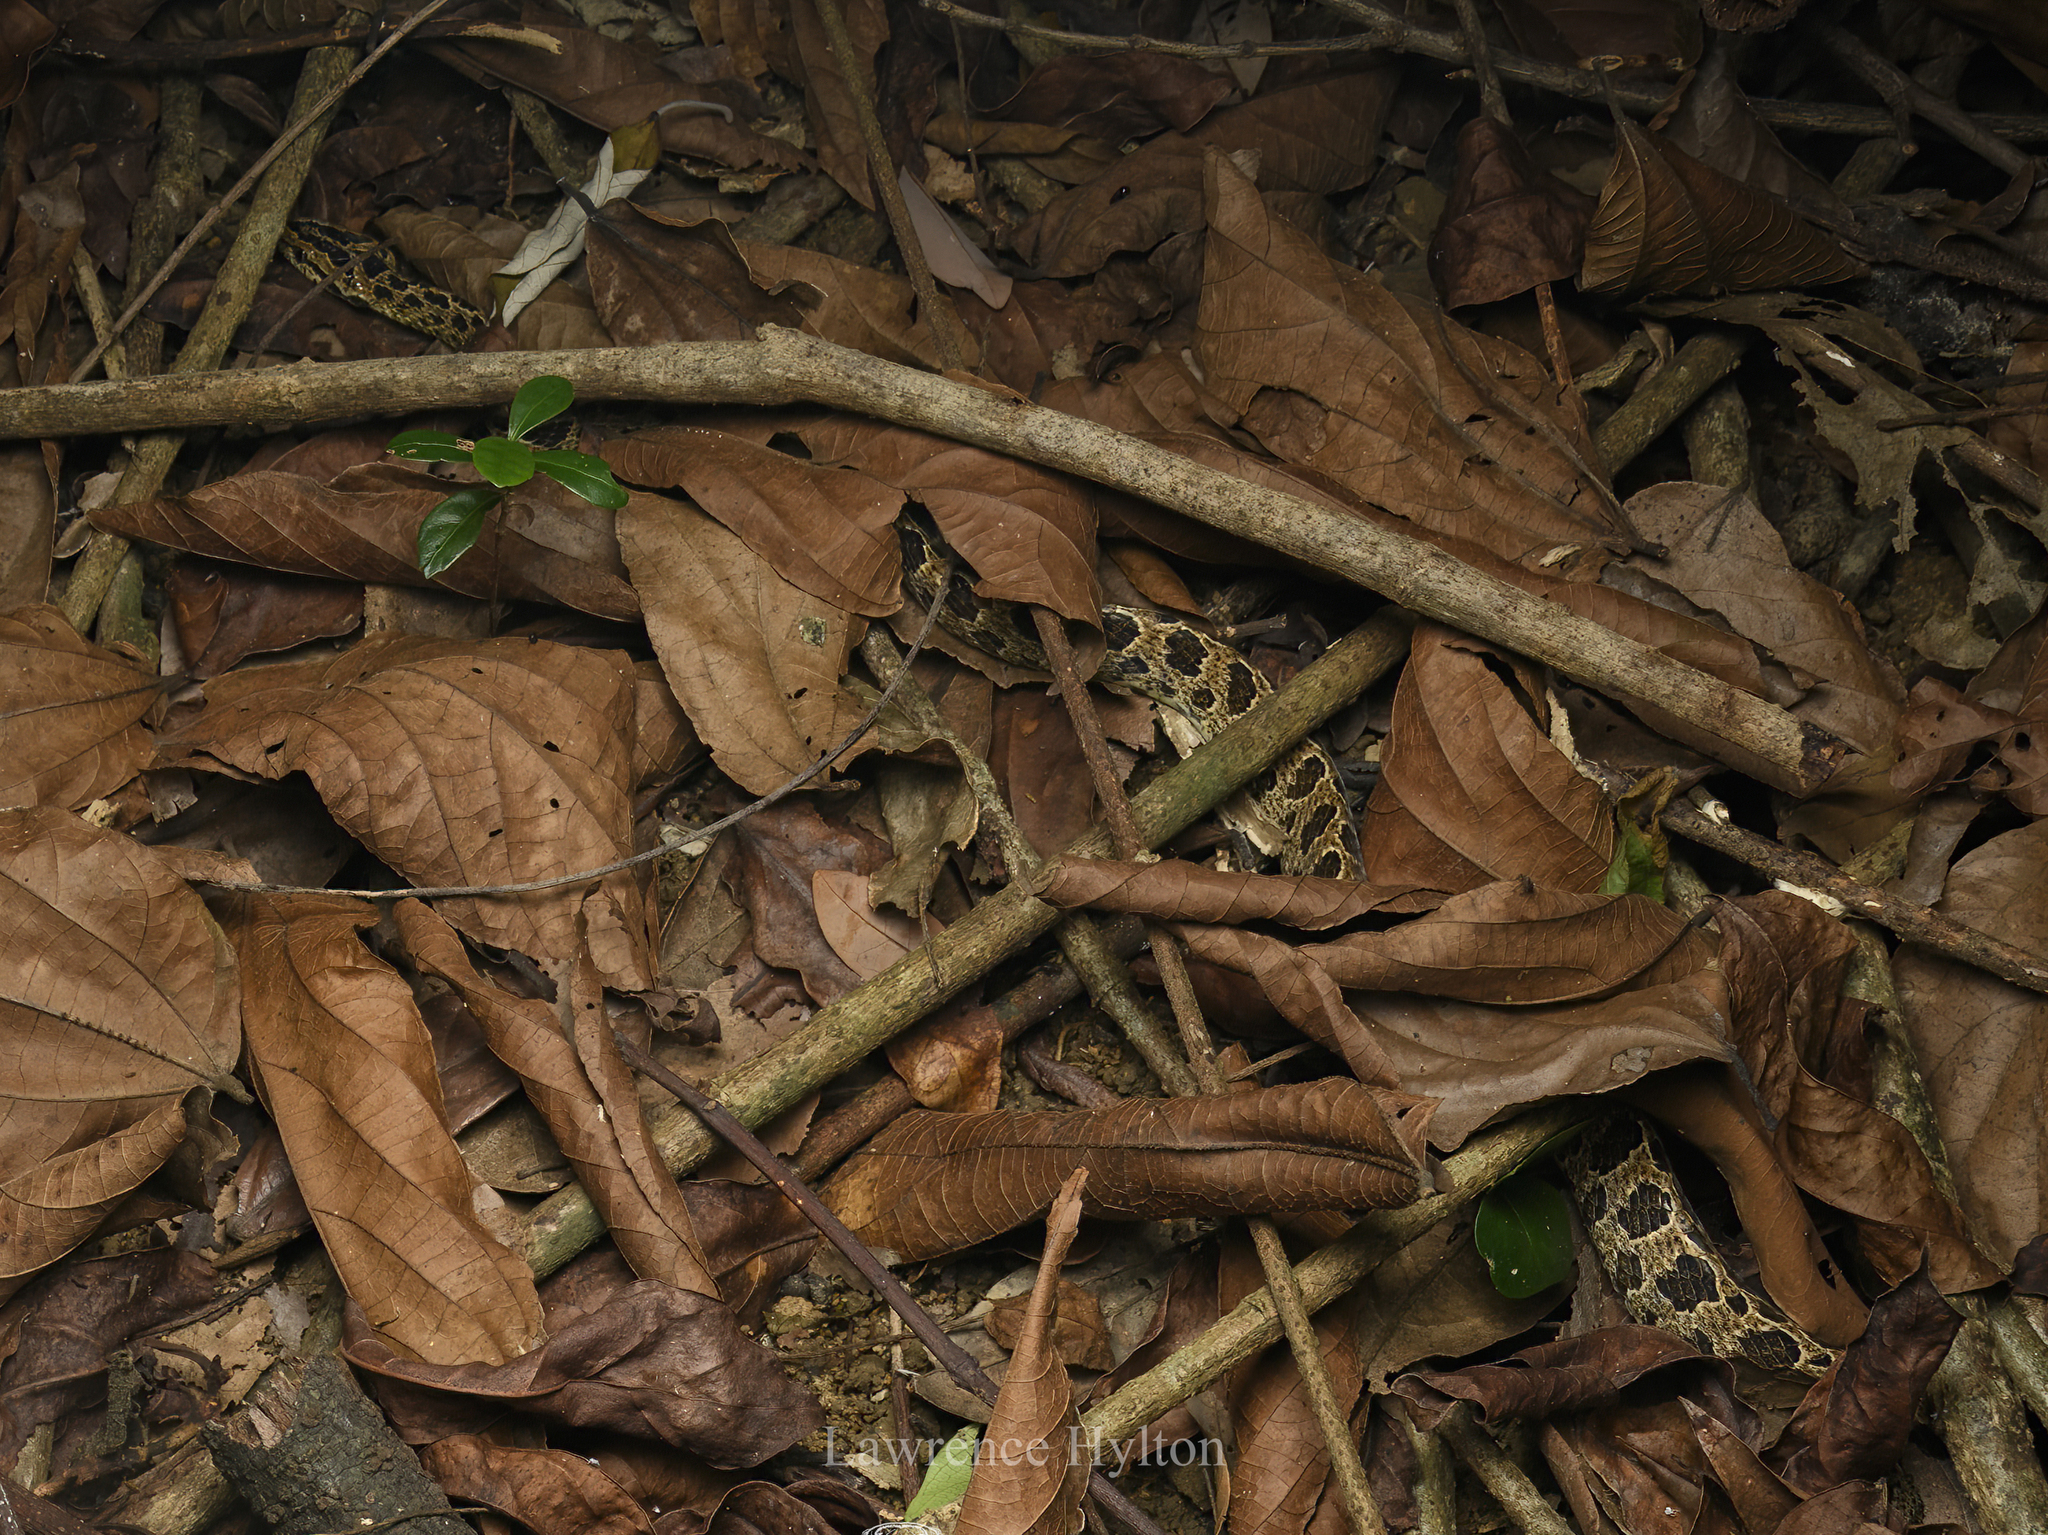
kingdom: Animalia
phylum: Chordata
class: Squamata
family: Colubridae
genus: Boiga
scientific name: Boiga multomaculata
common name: Many-spotted cat snake
